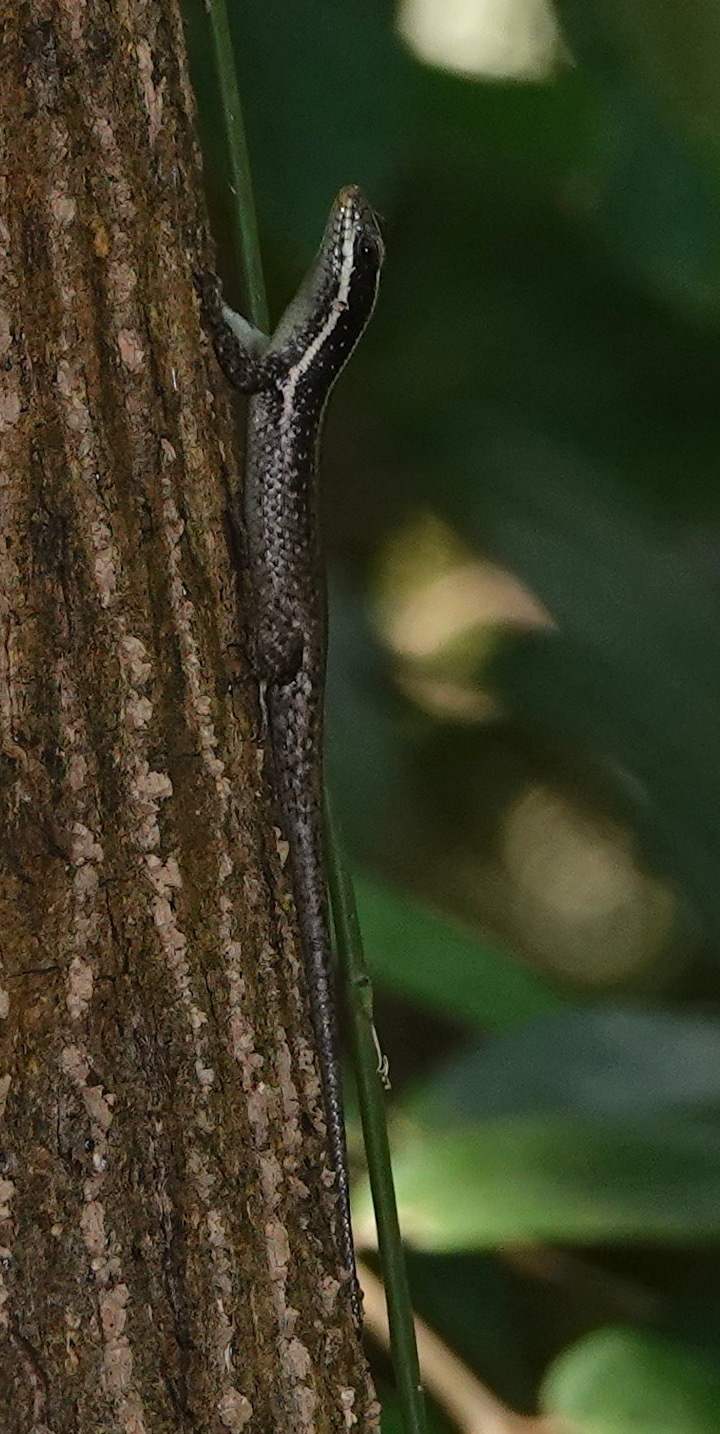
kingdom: Animalia
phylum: Chordata
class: Squamata
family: Scincidae
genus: Dasia
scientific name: Dasia vittata
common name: Borneo skink
